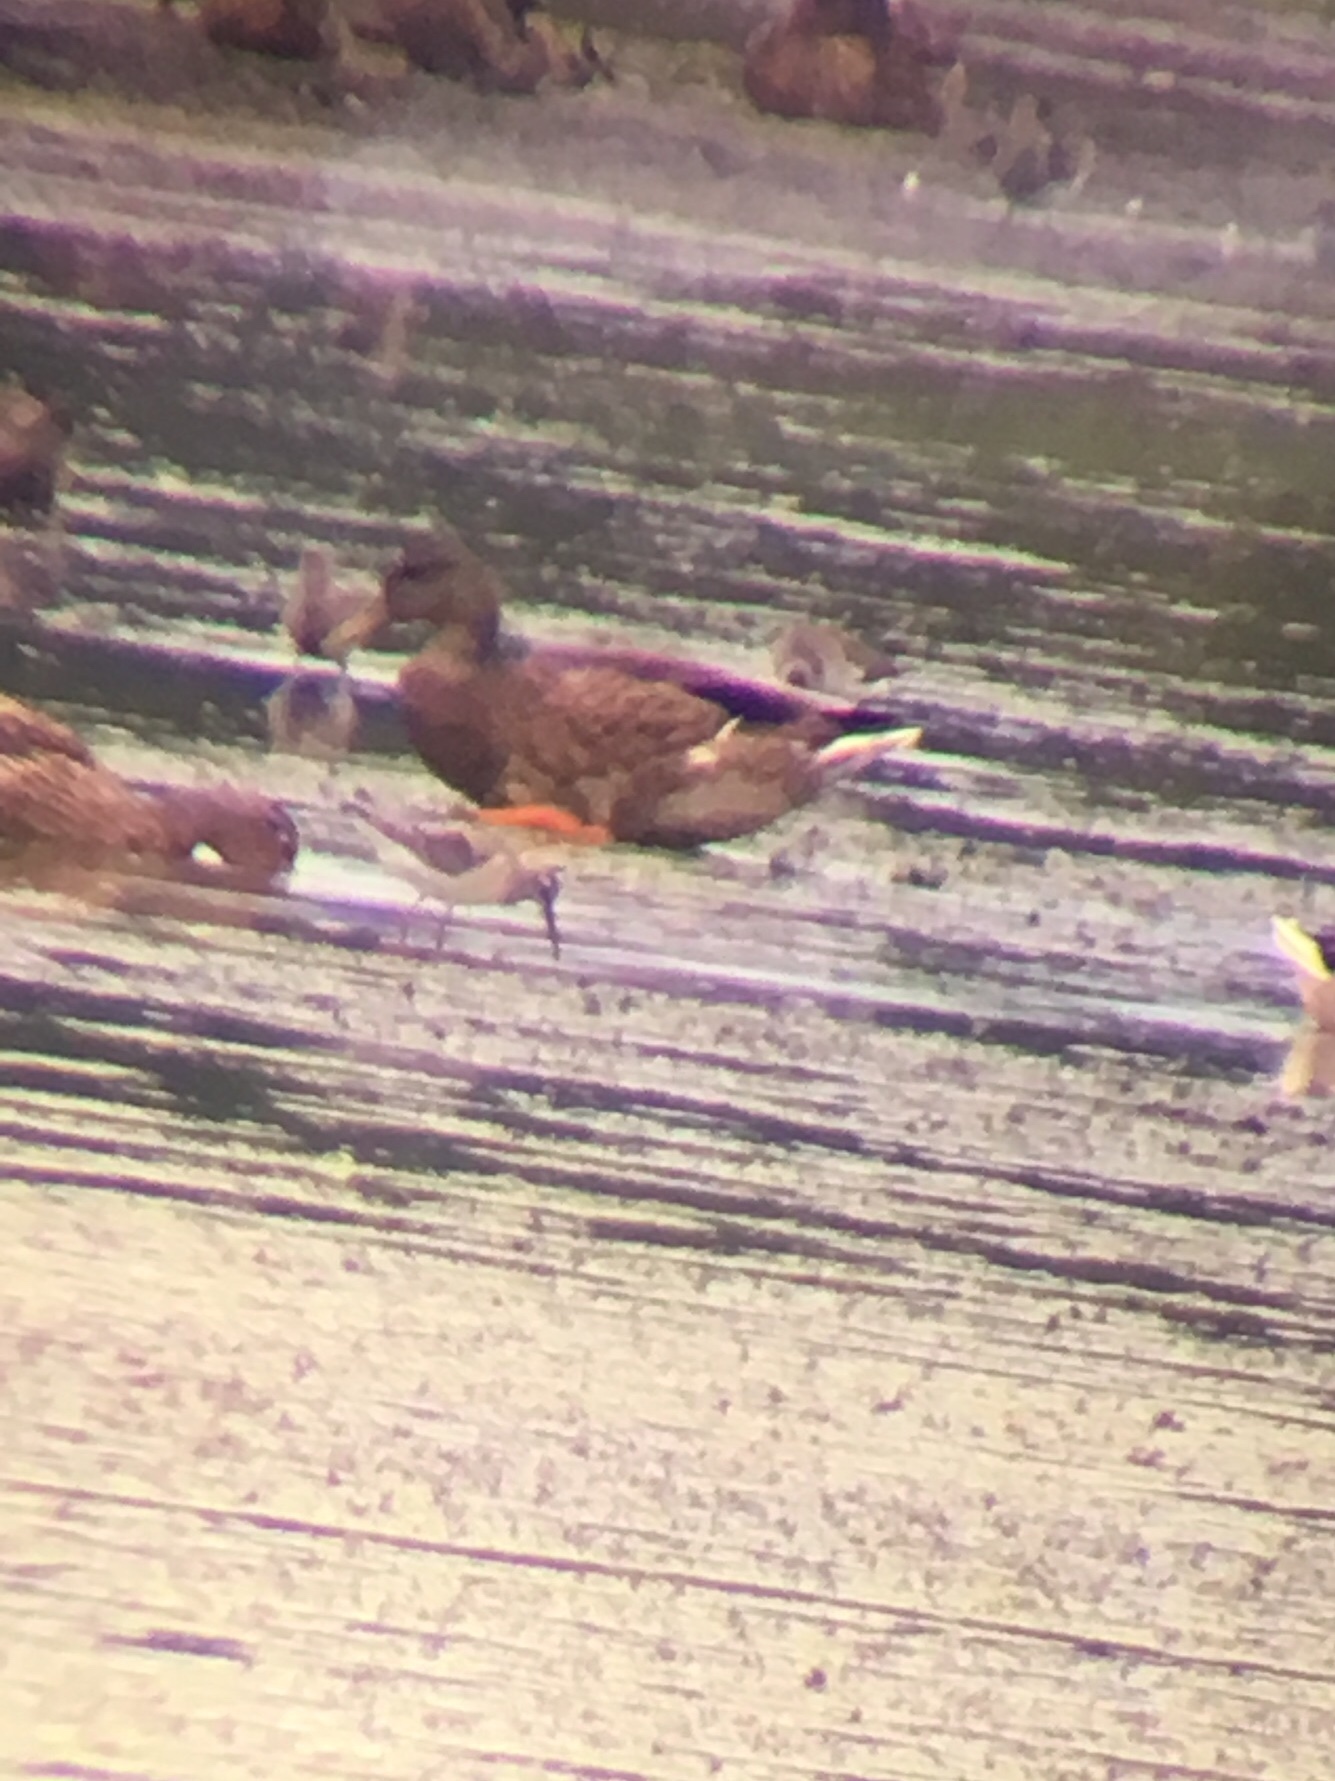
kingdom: Animalia
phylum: Chordata
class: Aves
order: Charadriiformes
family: Scolopacidae
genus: Calidris
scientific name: Calidris himantopus
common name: Stilt sandpiper
